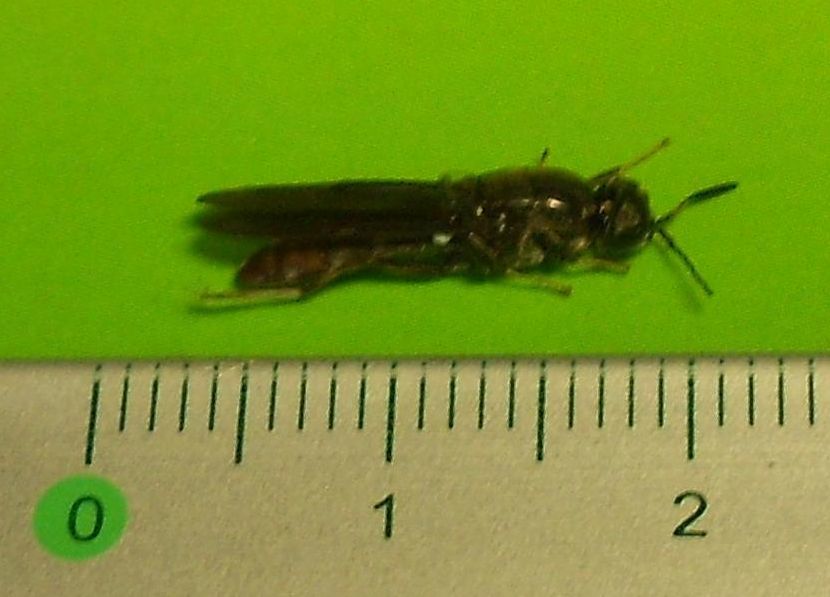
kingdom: Animalia
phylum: Arthropoda
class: Insecta
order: Diptera
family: Stratiomyidae
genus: Hermetia
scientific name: Hermetia illucens
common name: Black soldier fly
